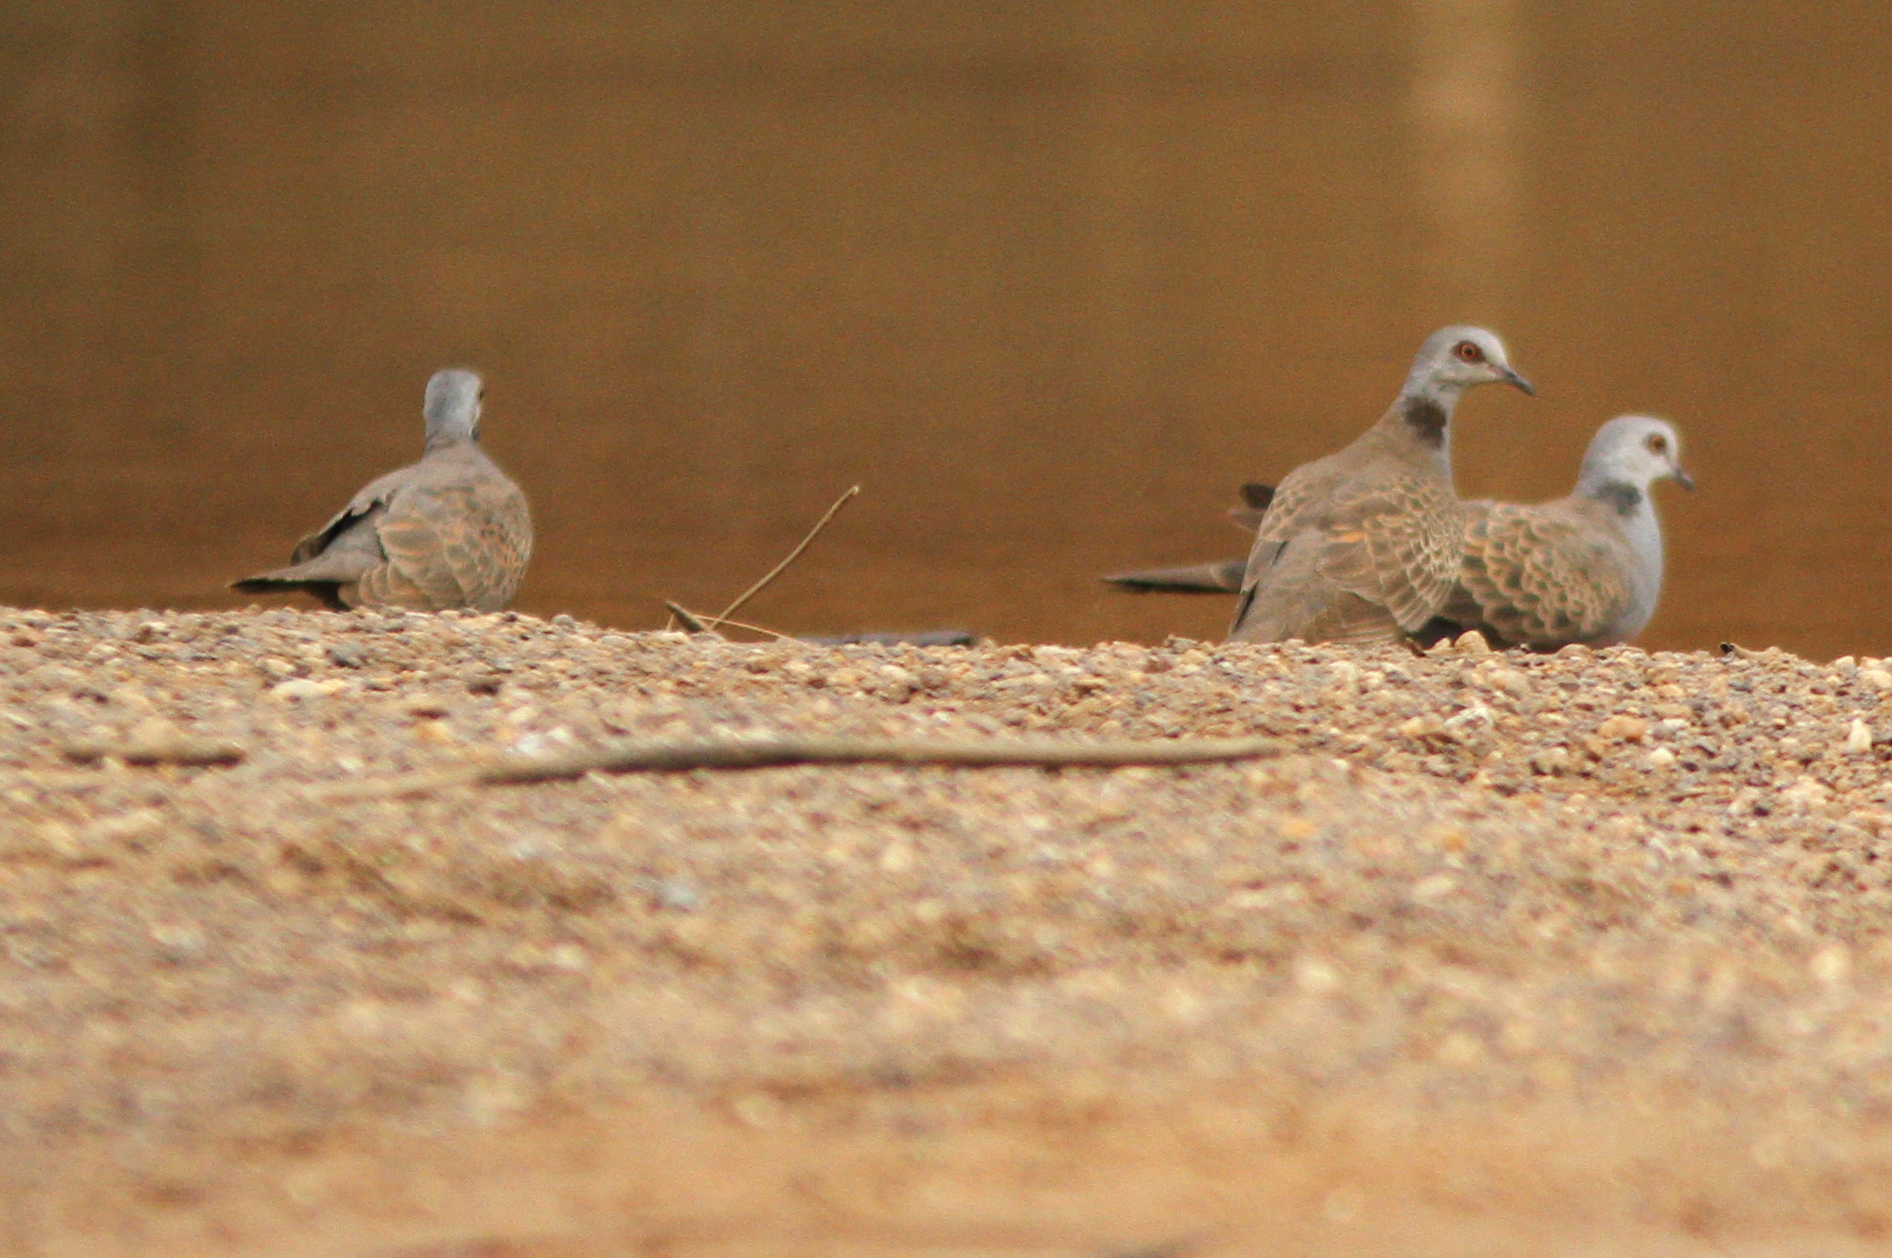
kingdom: Animalia
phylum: Chordata
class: Aves
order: Columbiformes
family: Columbidae
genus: Streptopelia
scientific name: Streptopelia hypopyrrha
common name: Adamawa turtle dove
